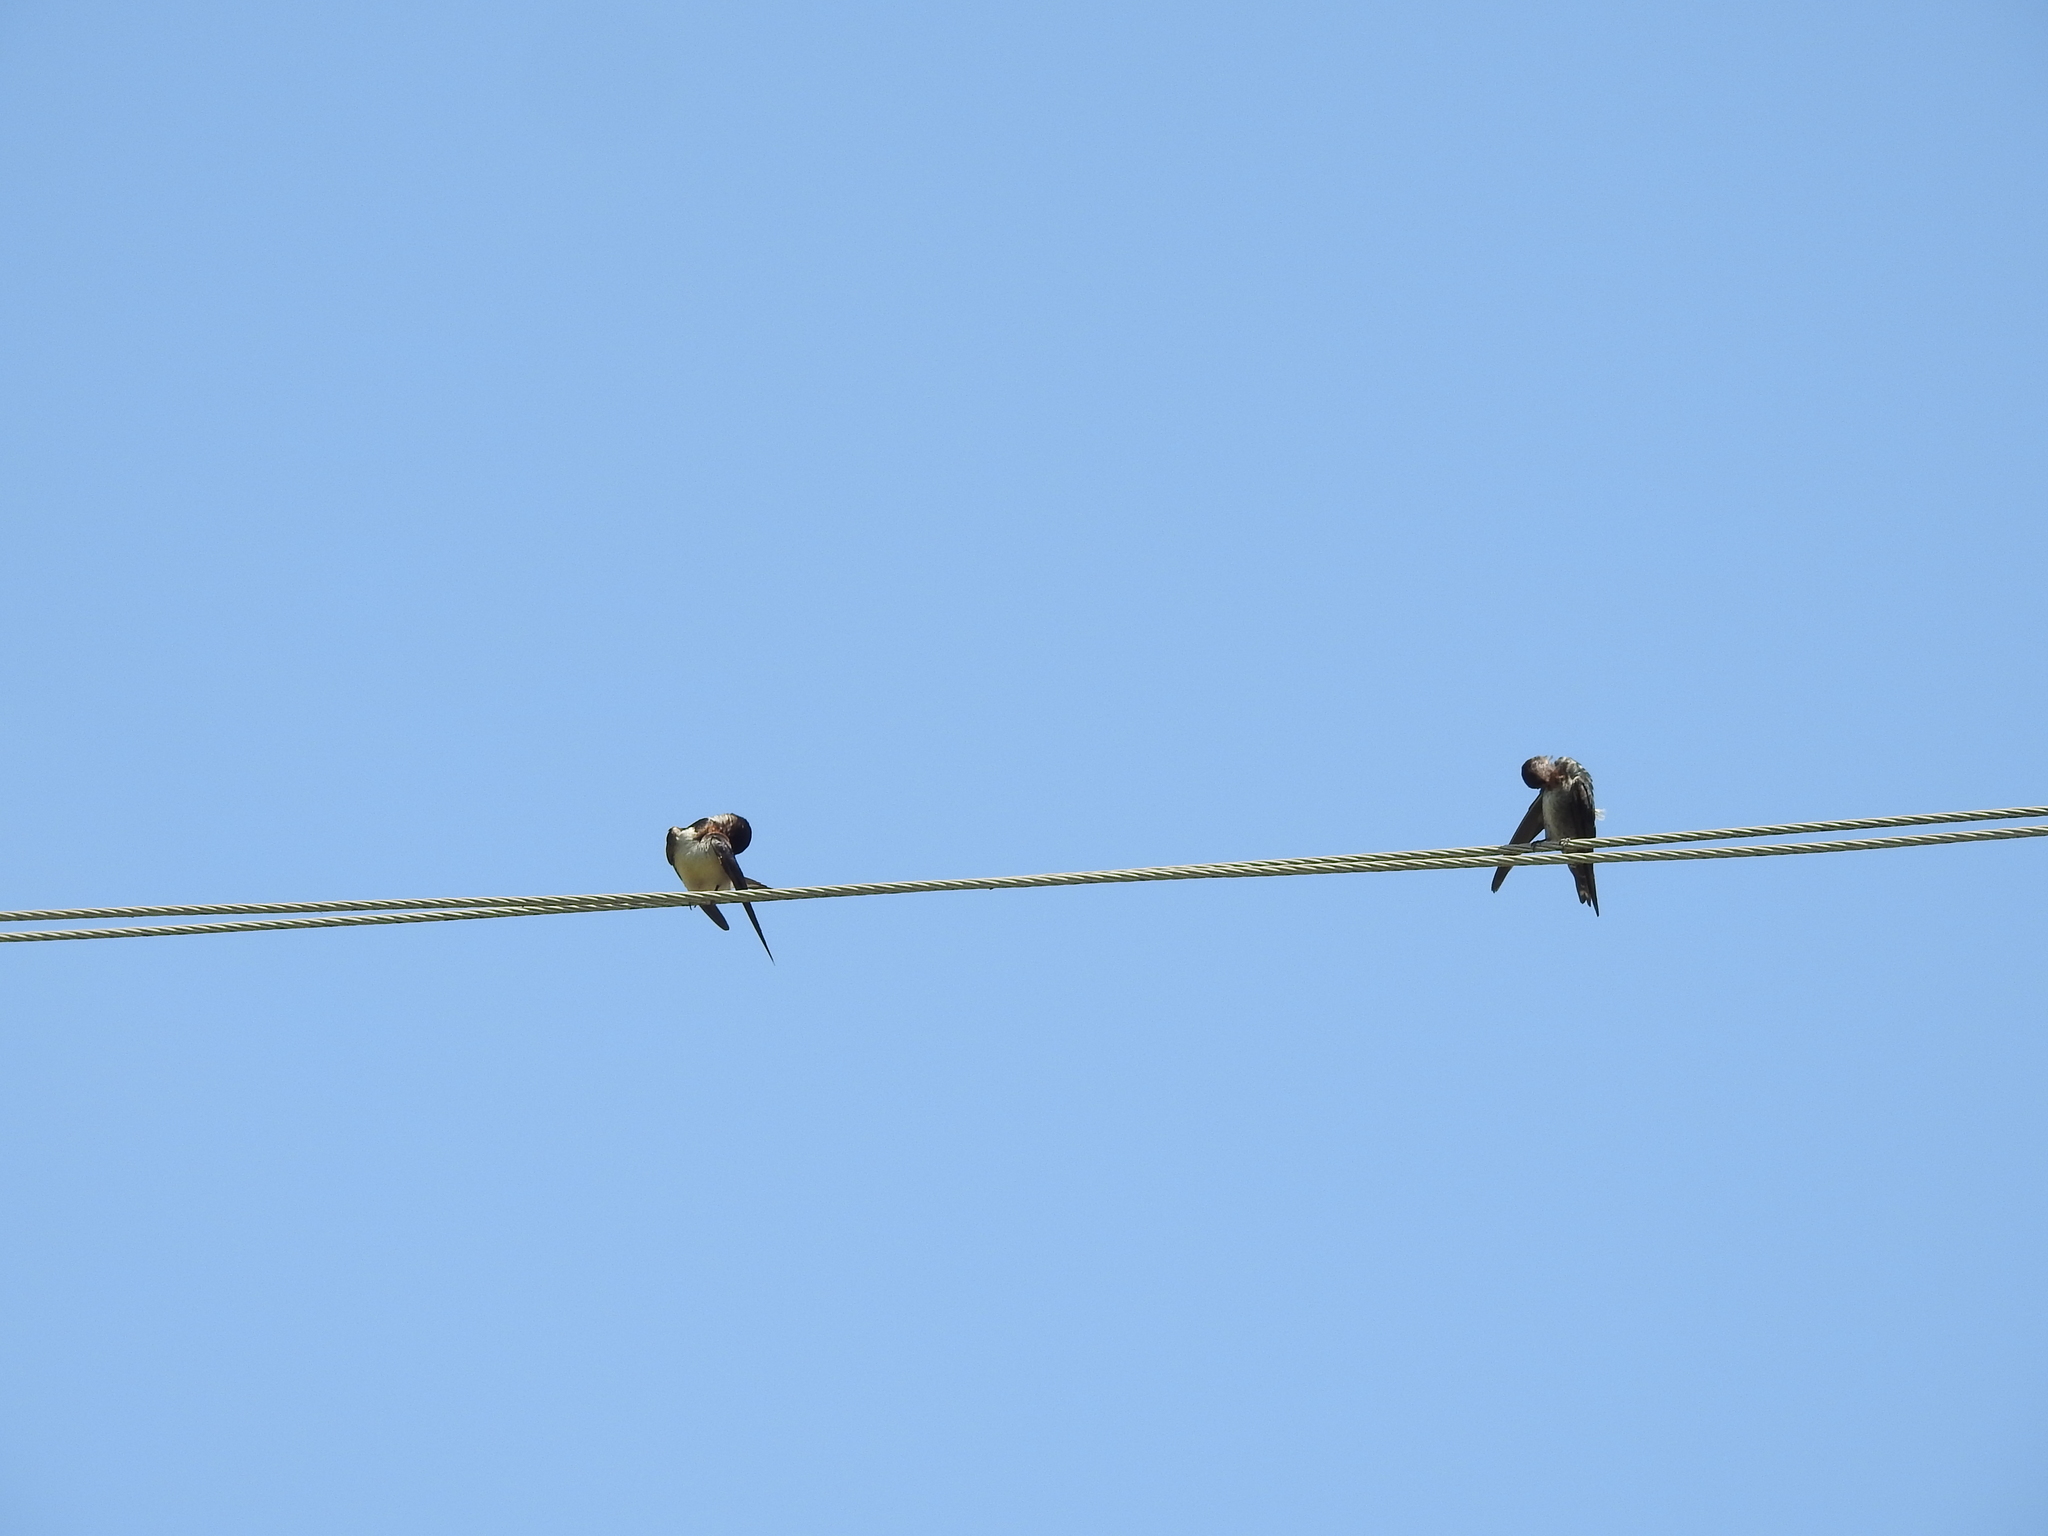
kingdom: Animalia
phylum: Chordata
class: Aves
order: Passeriformes
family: Hirundinidae
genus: Hirundo
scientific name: Hirundo rustica
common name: Barn swallow
